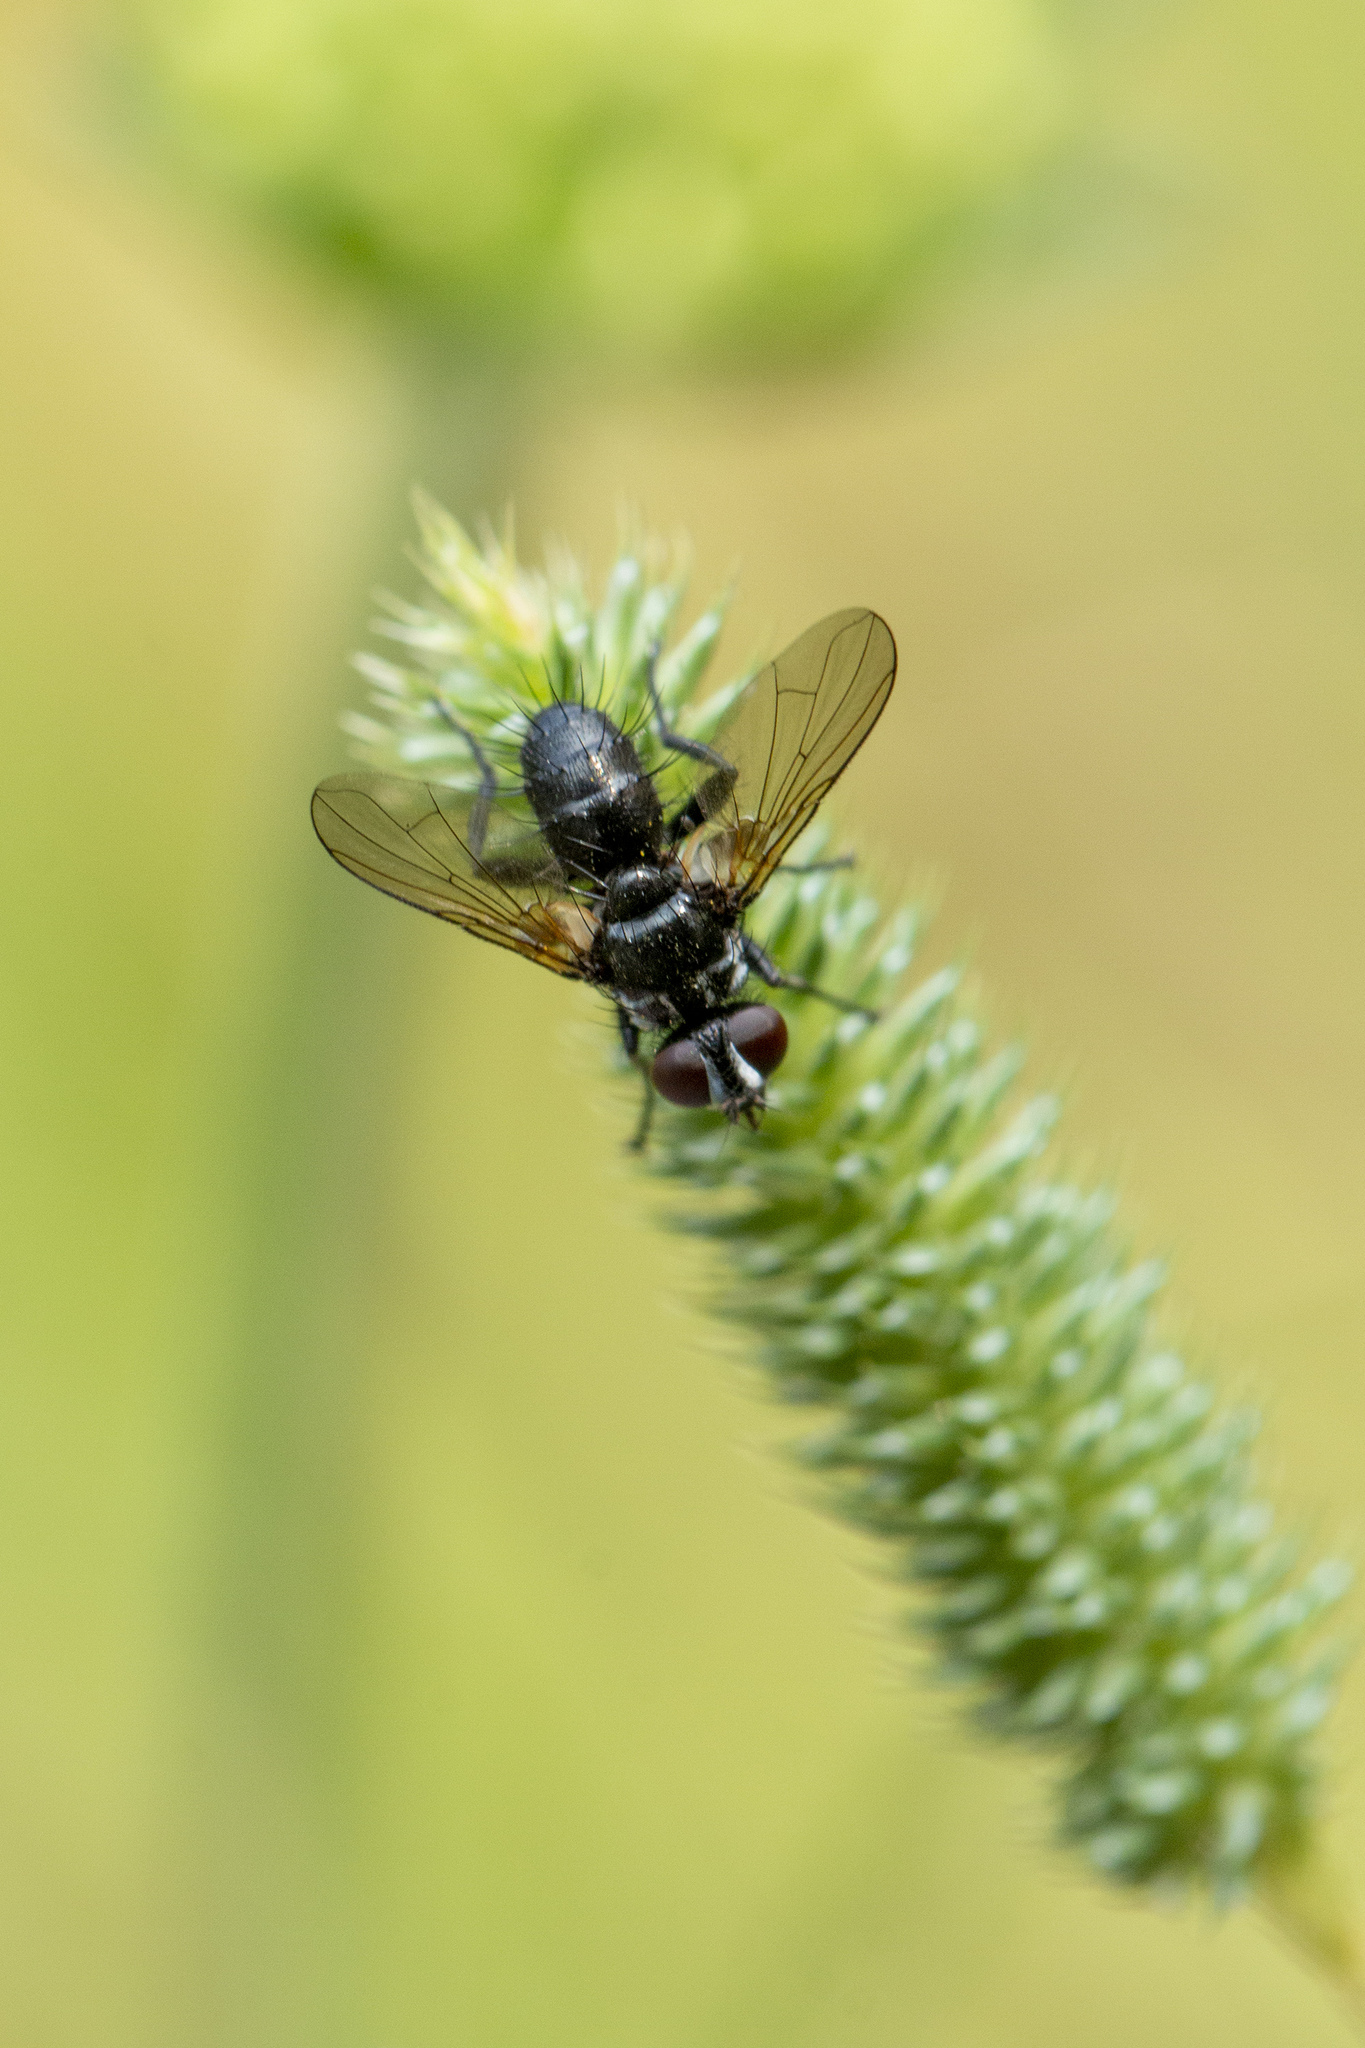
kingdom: Animalia
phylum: Arthropoda
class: Insecta
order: Diptera
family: Tachinidae
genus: Phania
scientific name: Phania funesta
